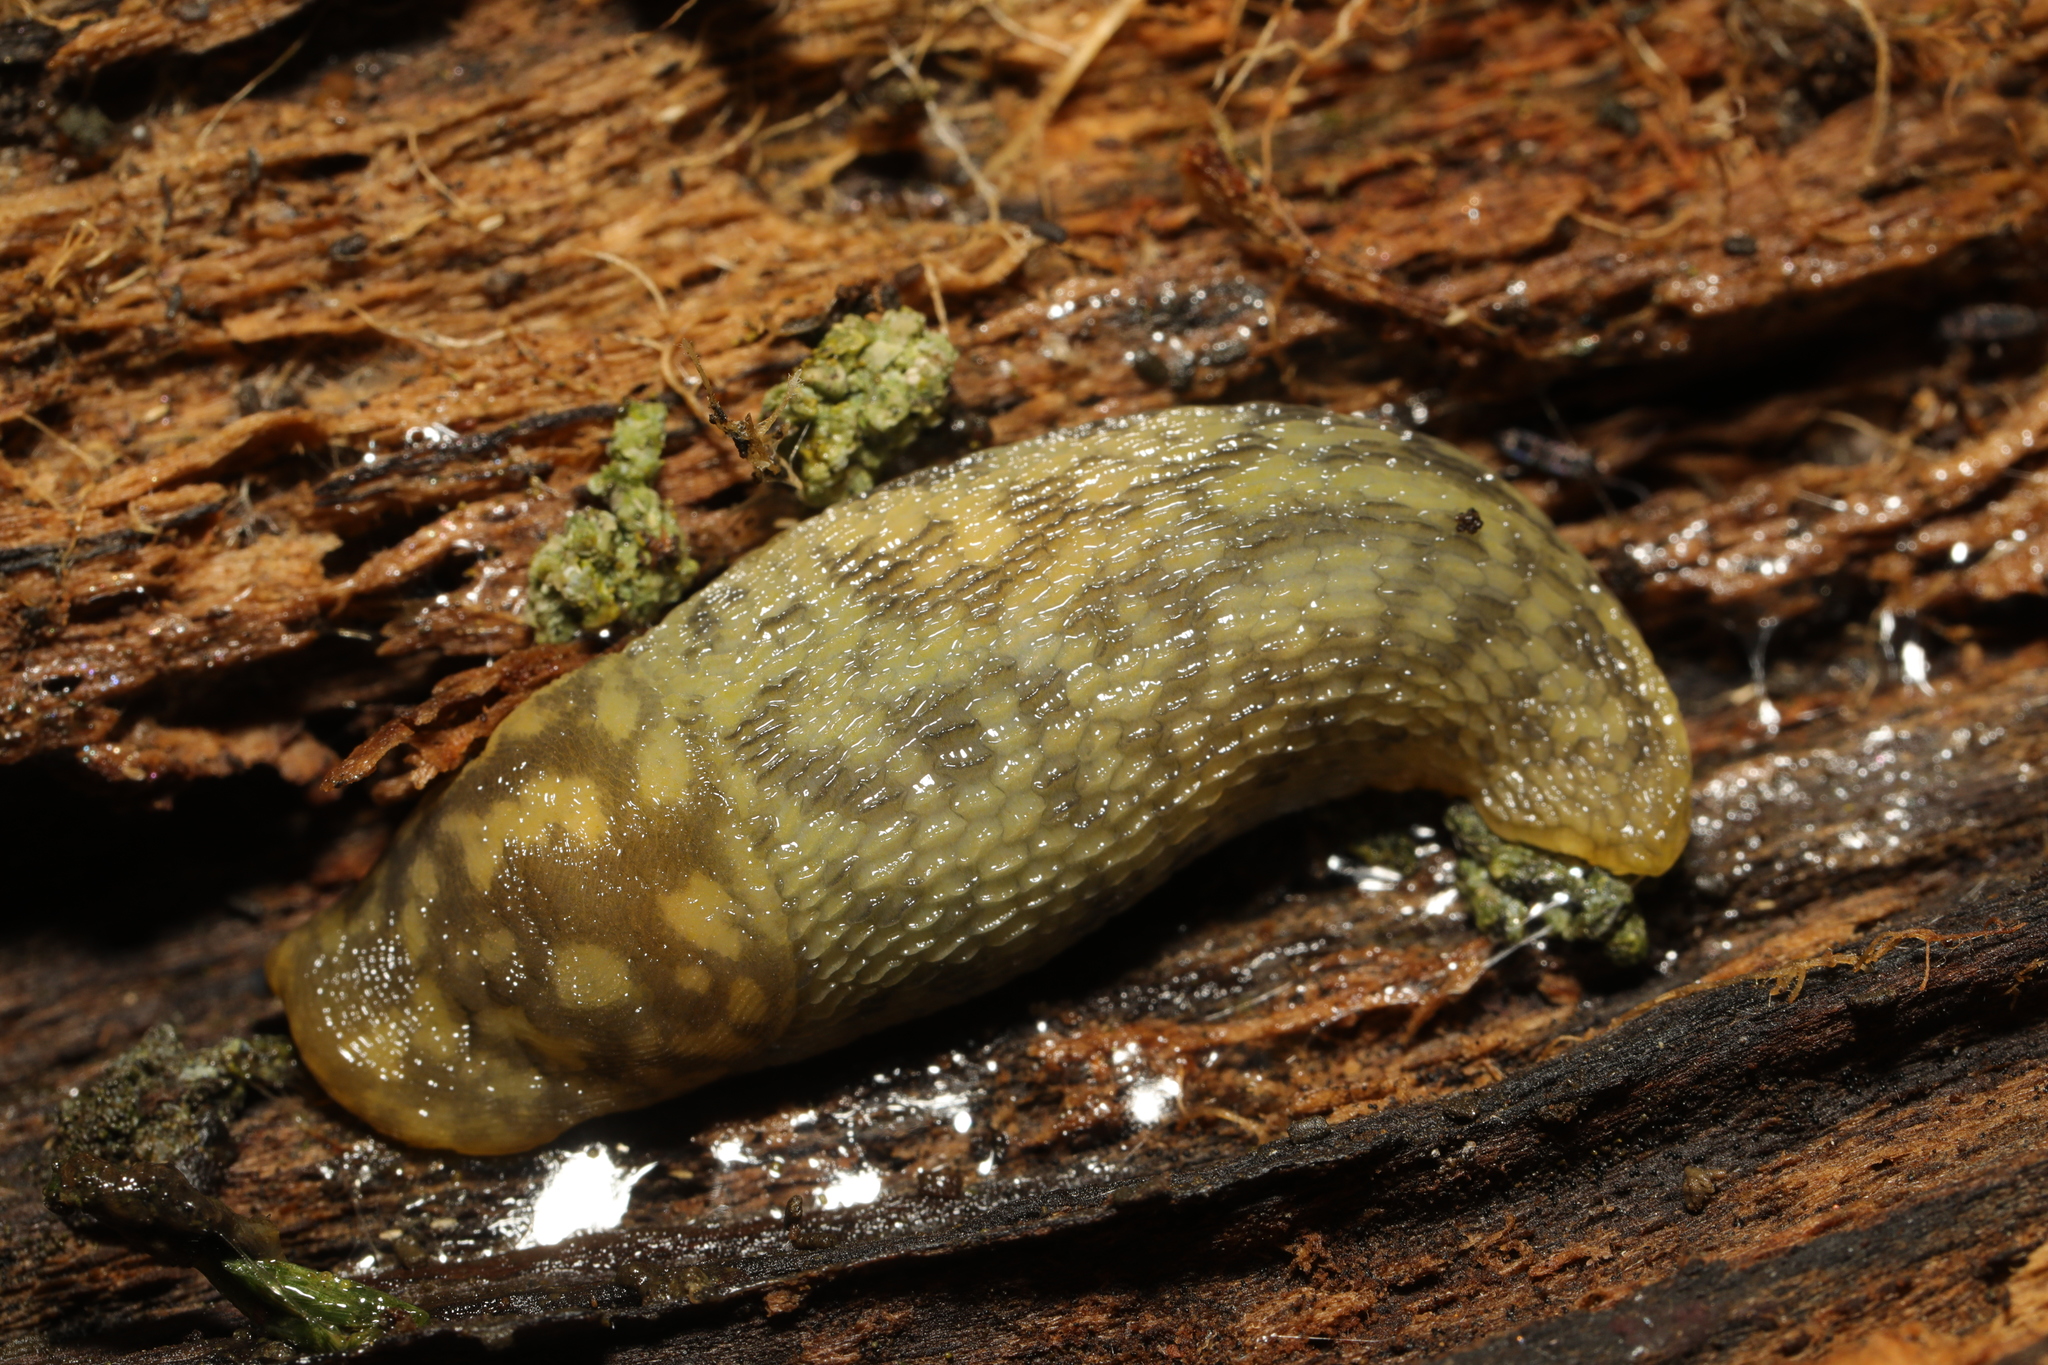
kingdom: Animalia
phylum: Mollusca
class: Gastropoda
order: Stylommatophora
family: Limacidae
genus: Limacus
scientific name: Limacus maculatus
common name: Irish yellow slug
